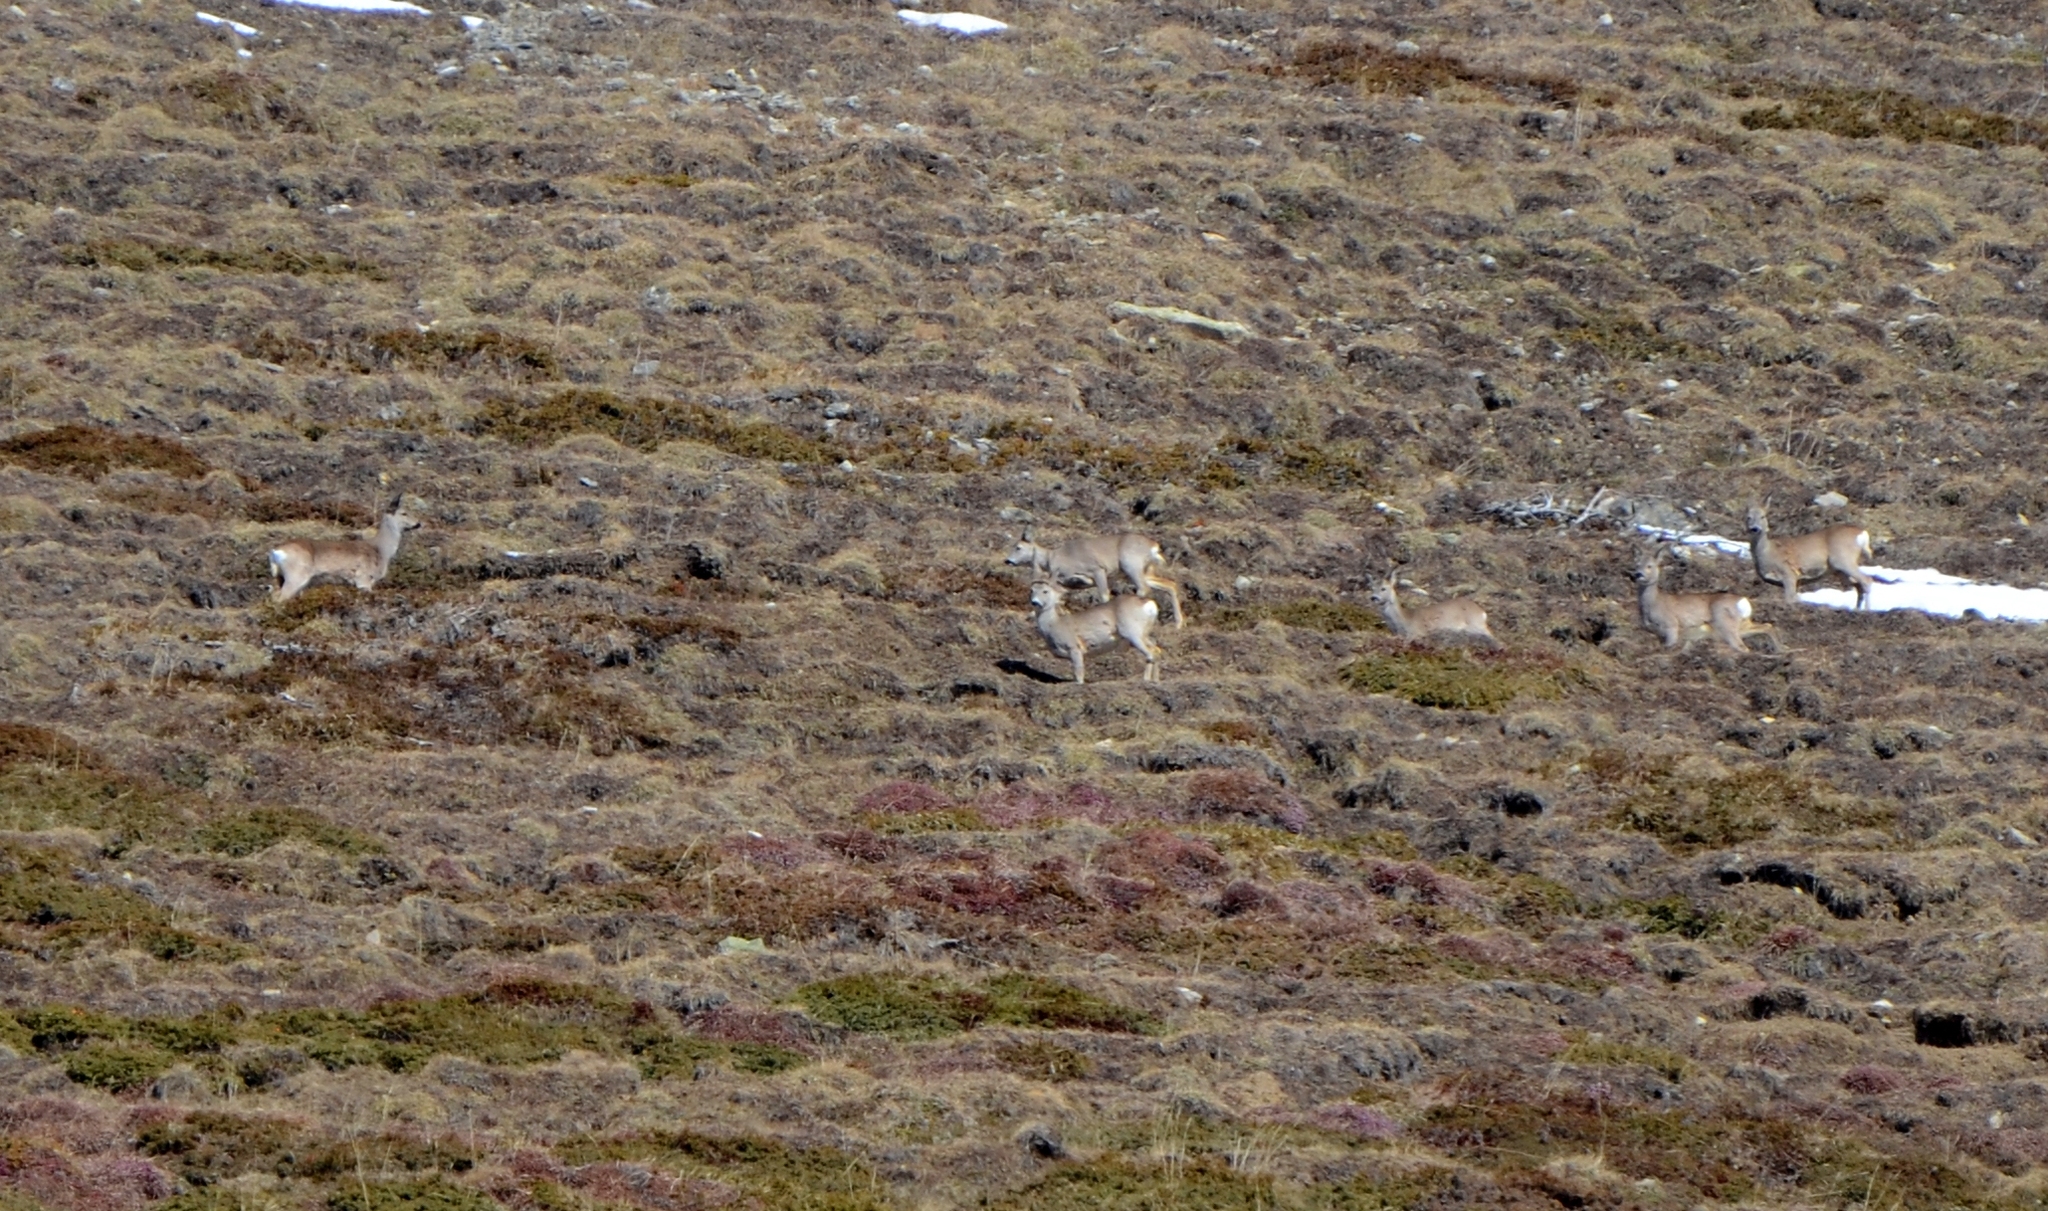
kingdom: Animalia
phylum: Chordata
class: Mammalia
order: Artiodactyla
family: Cervidae
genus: Capreolus
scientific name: Capreolus capreolus
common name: Western roe deer
